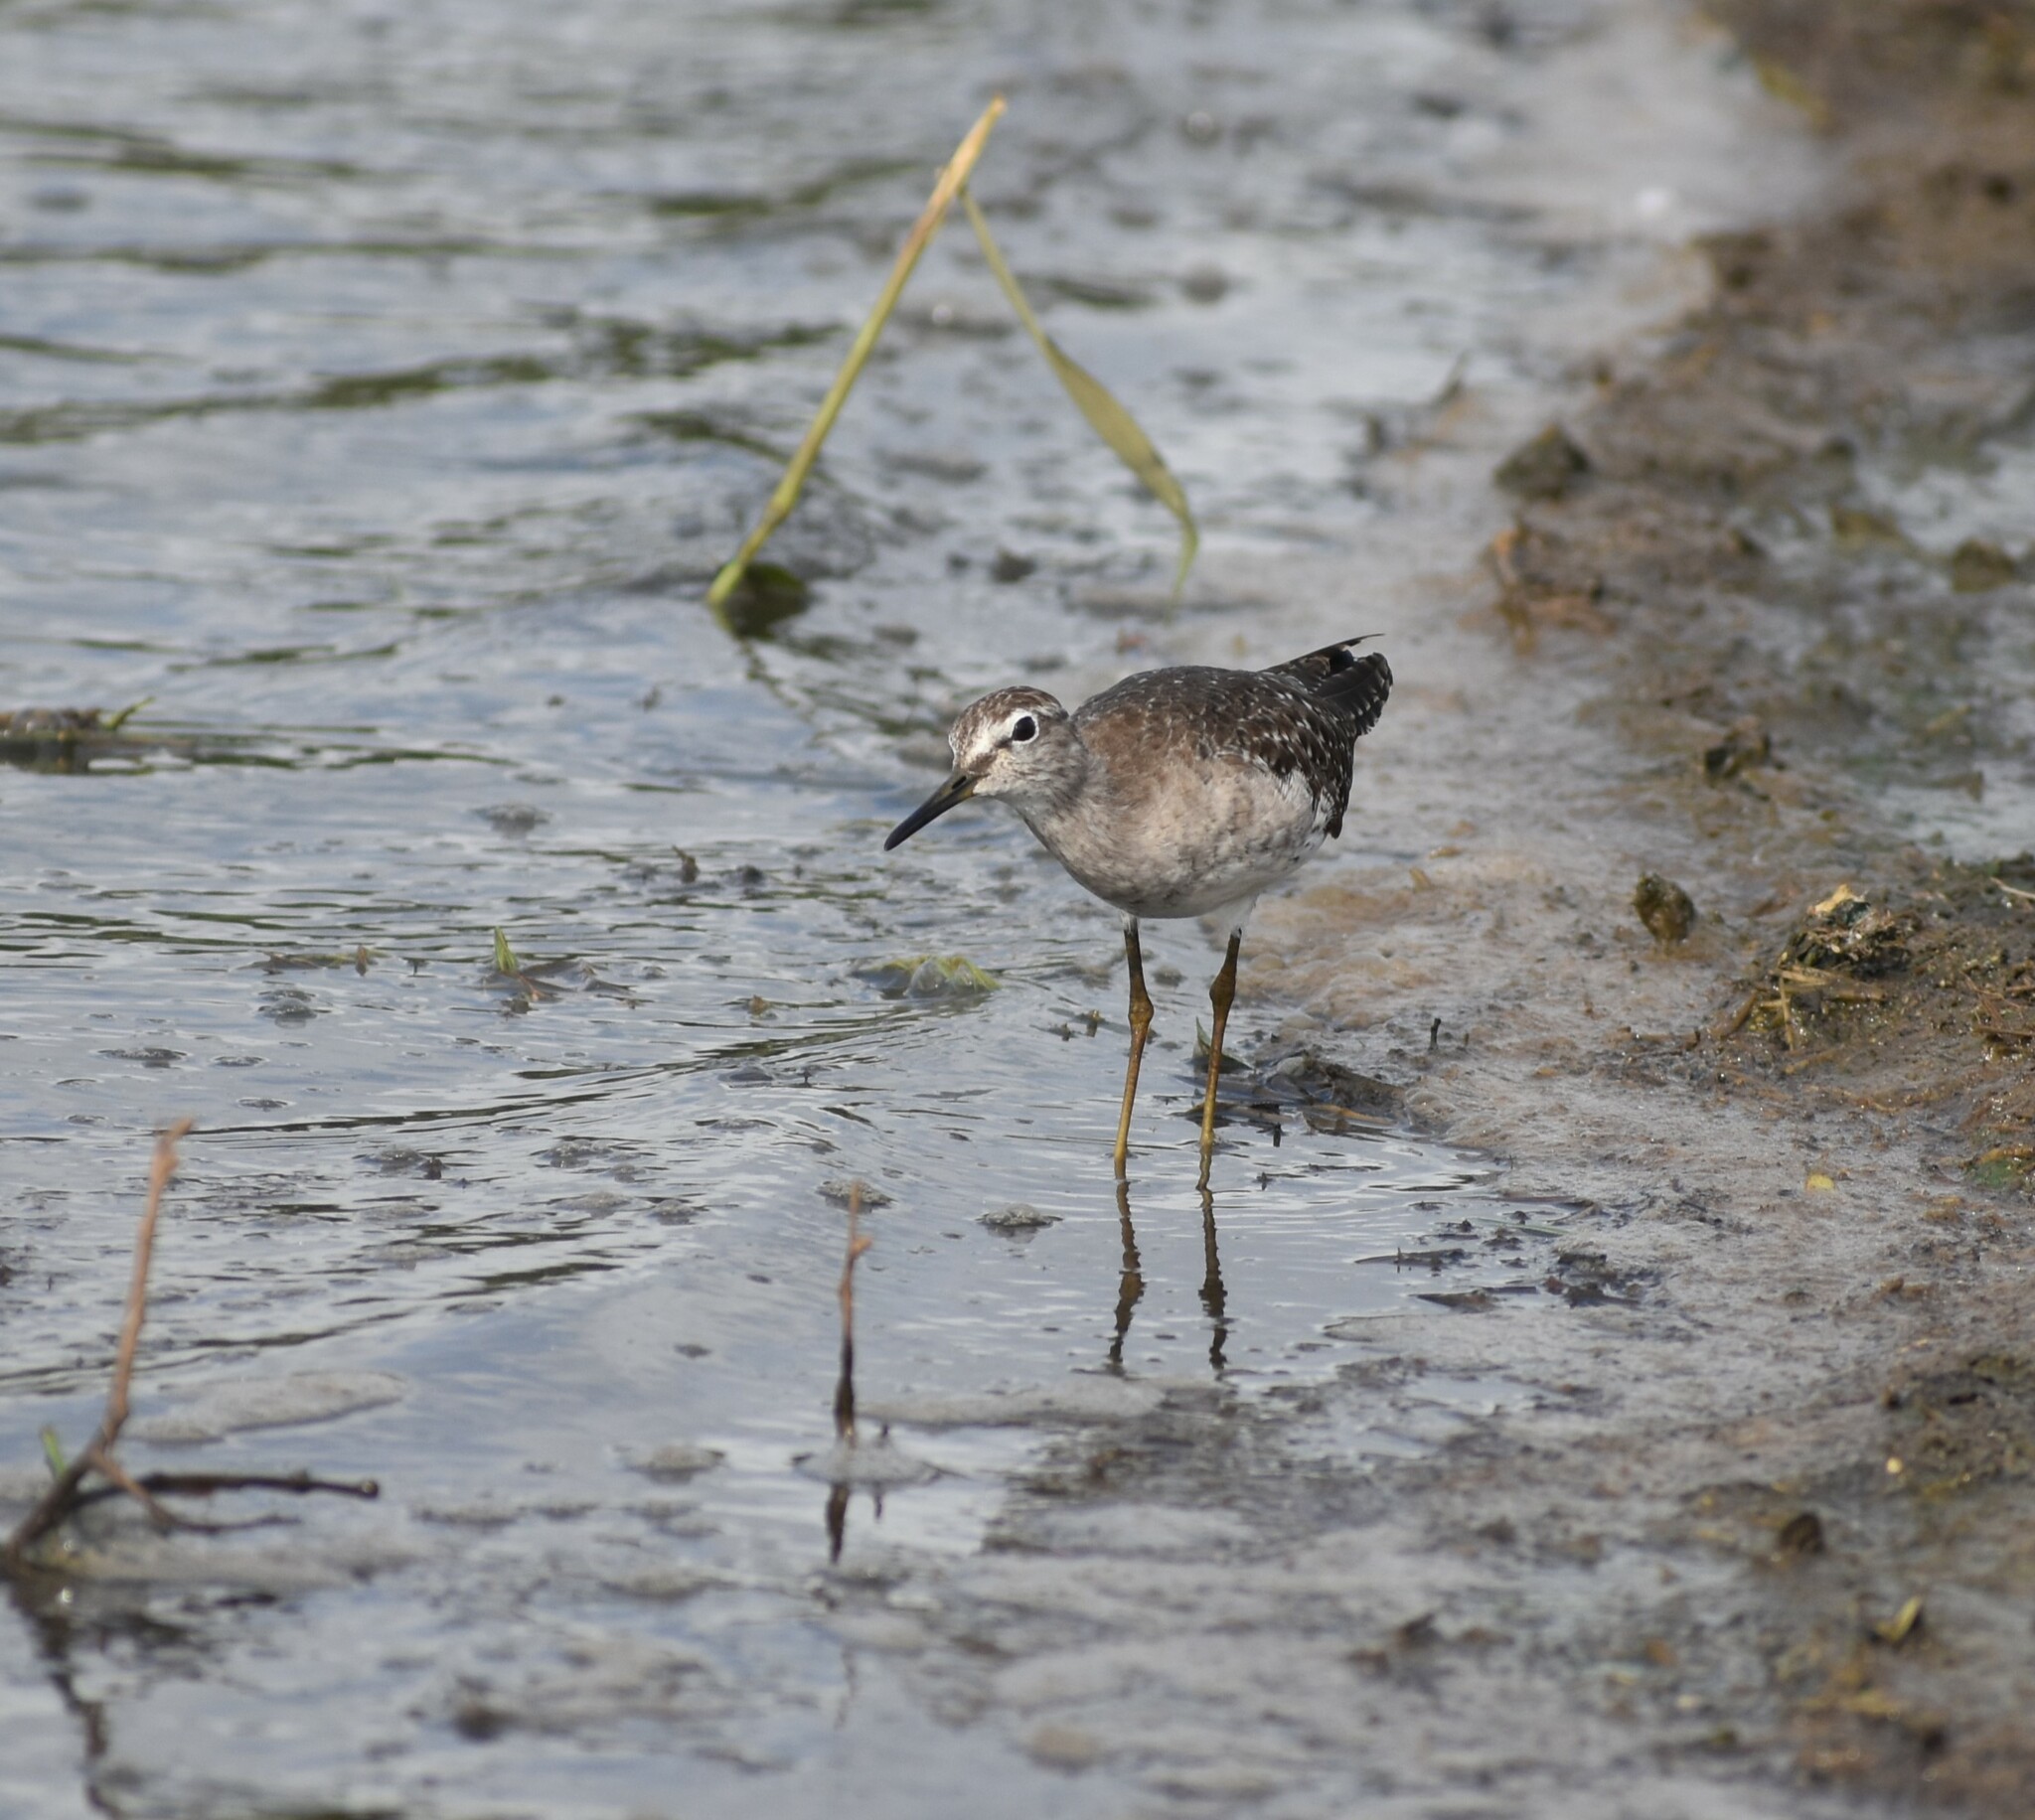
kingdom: Animalia
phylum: Chordata
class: Aves
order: Charadriiformes
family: Scolopacidae
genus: Tringa
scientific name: Tringa glareola
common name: Wood sandpiper
